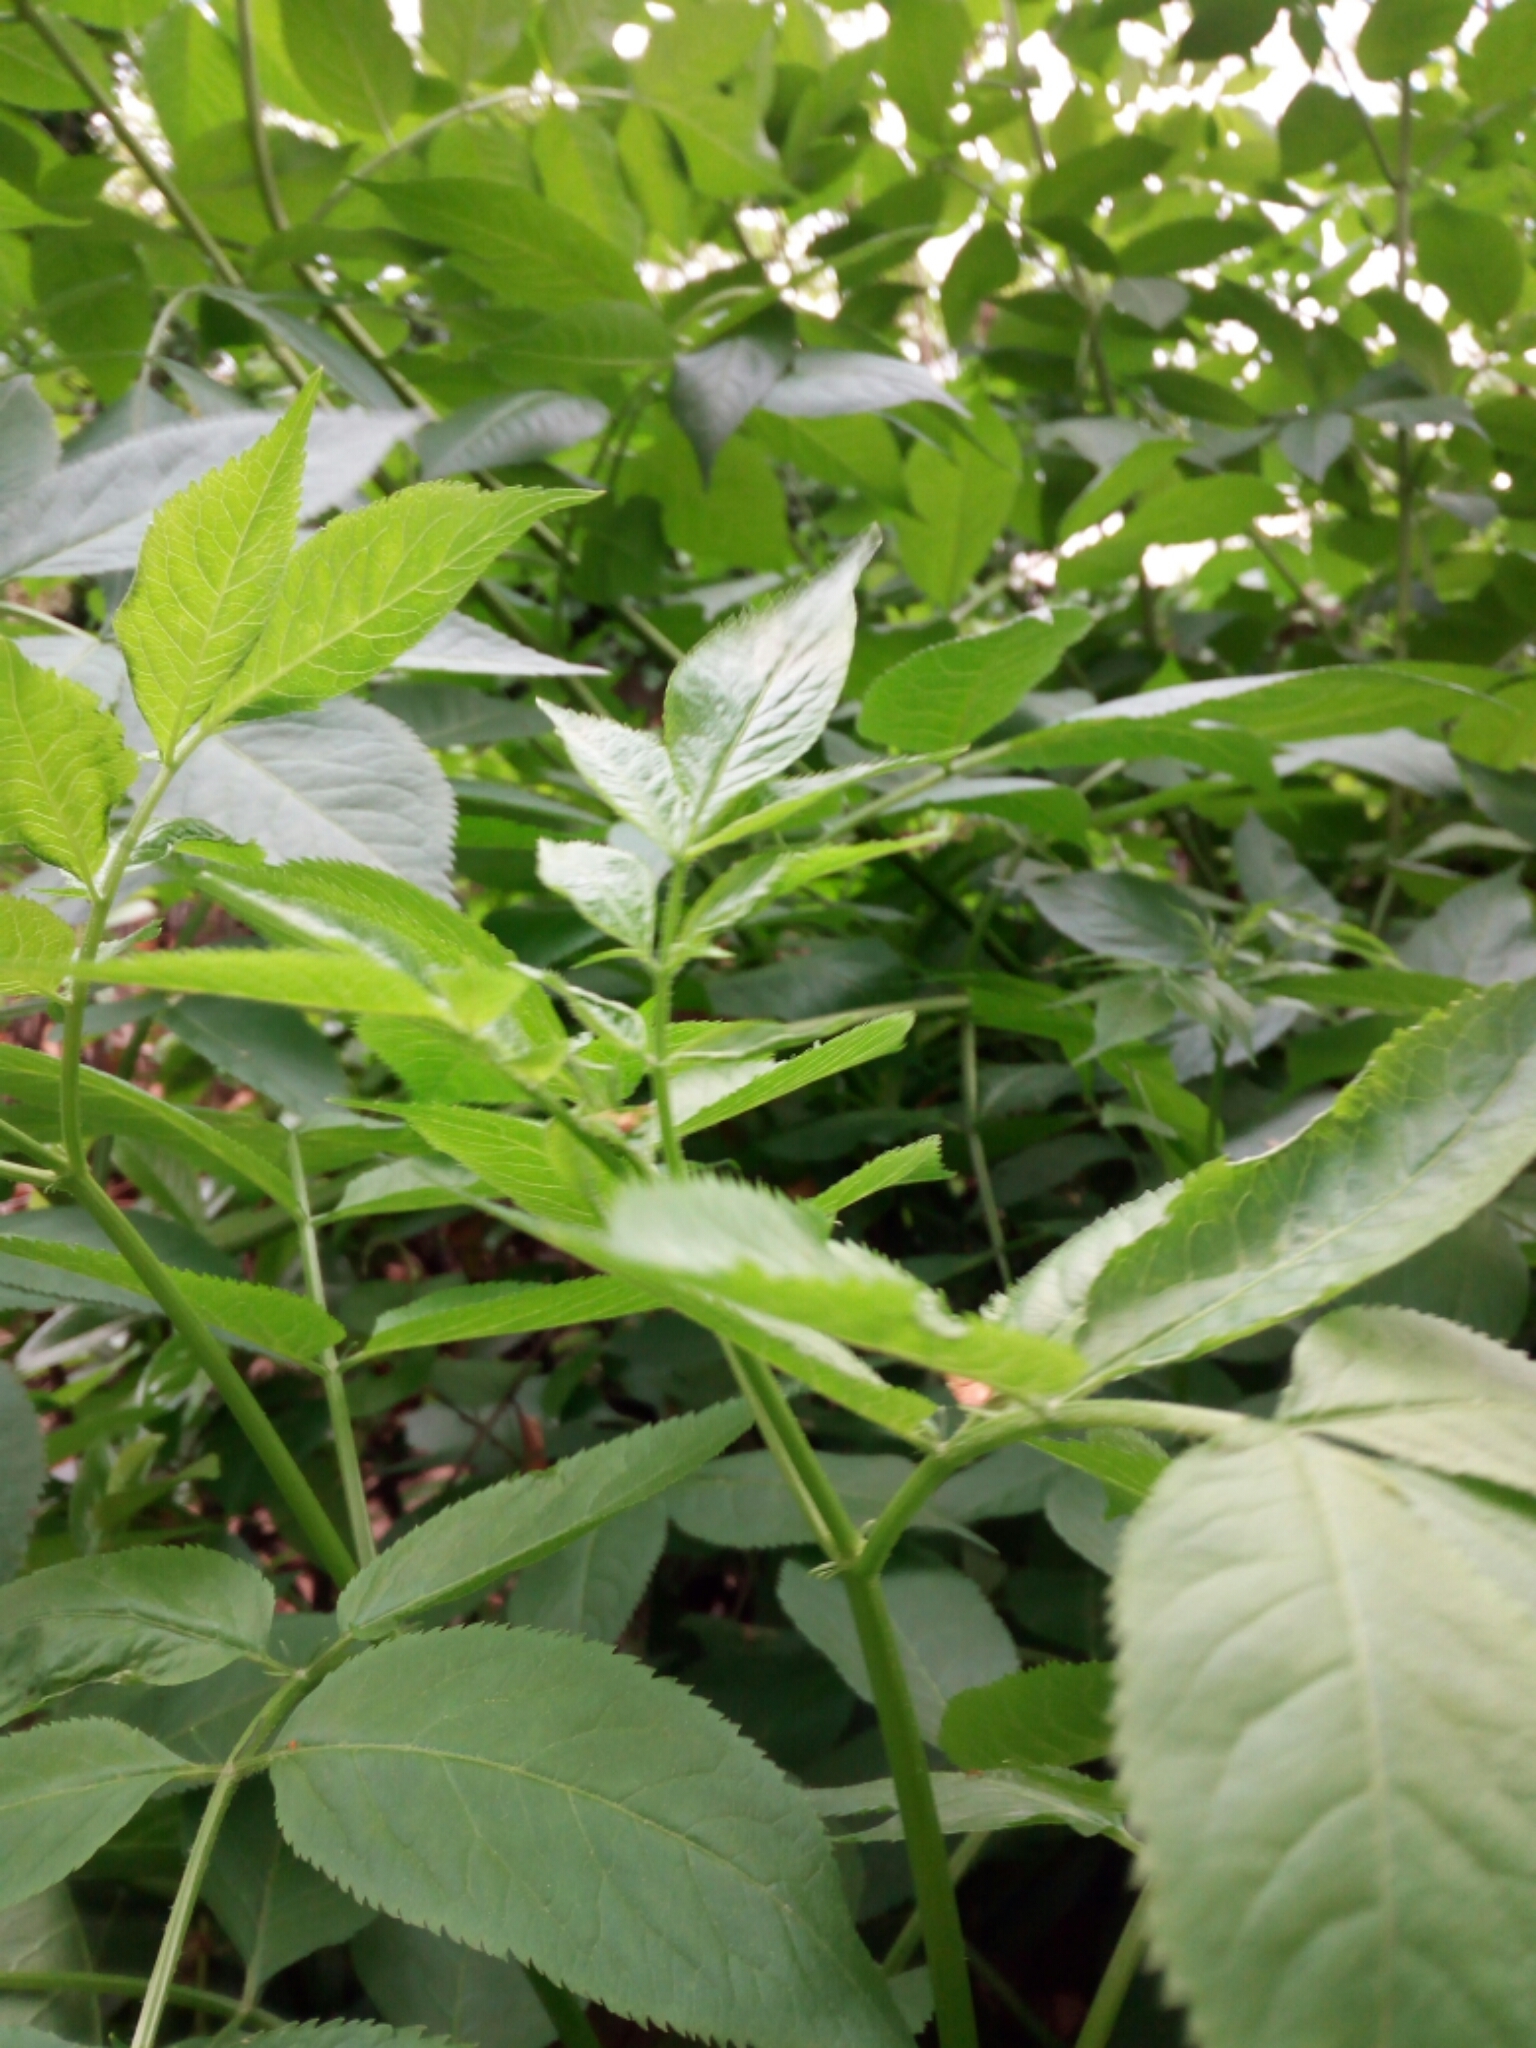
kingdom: Plantae
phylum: Tracheophyta
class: Magnoliopsida
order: Dipsacales
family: Viburnaceae
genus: Sambucus
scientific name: Sambucus nigra
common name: Elder
